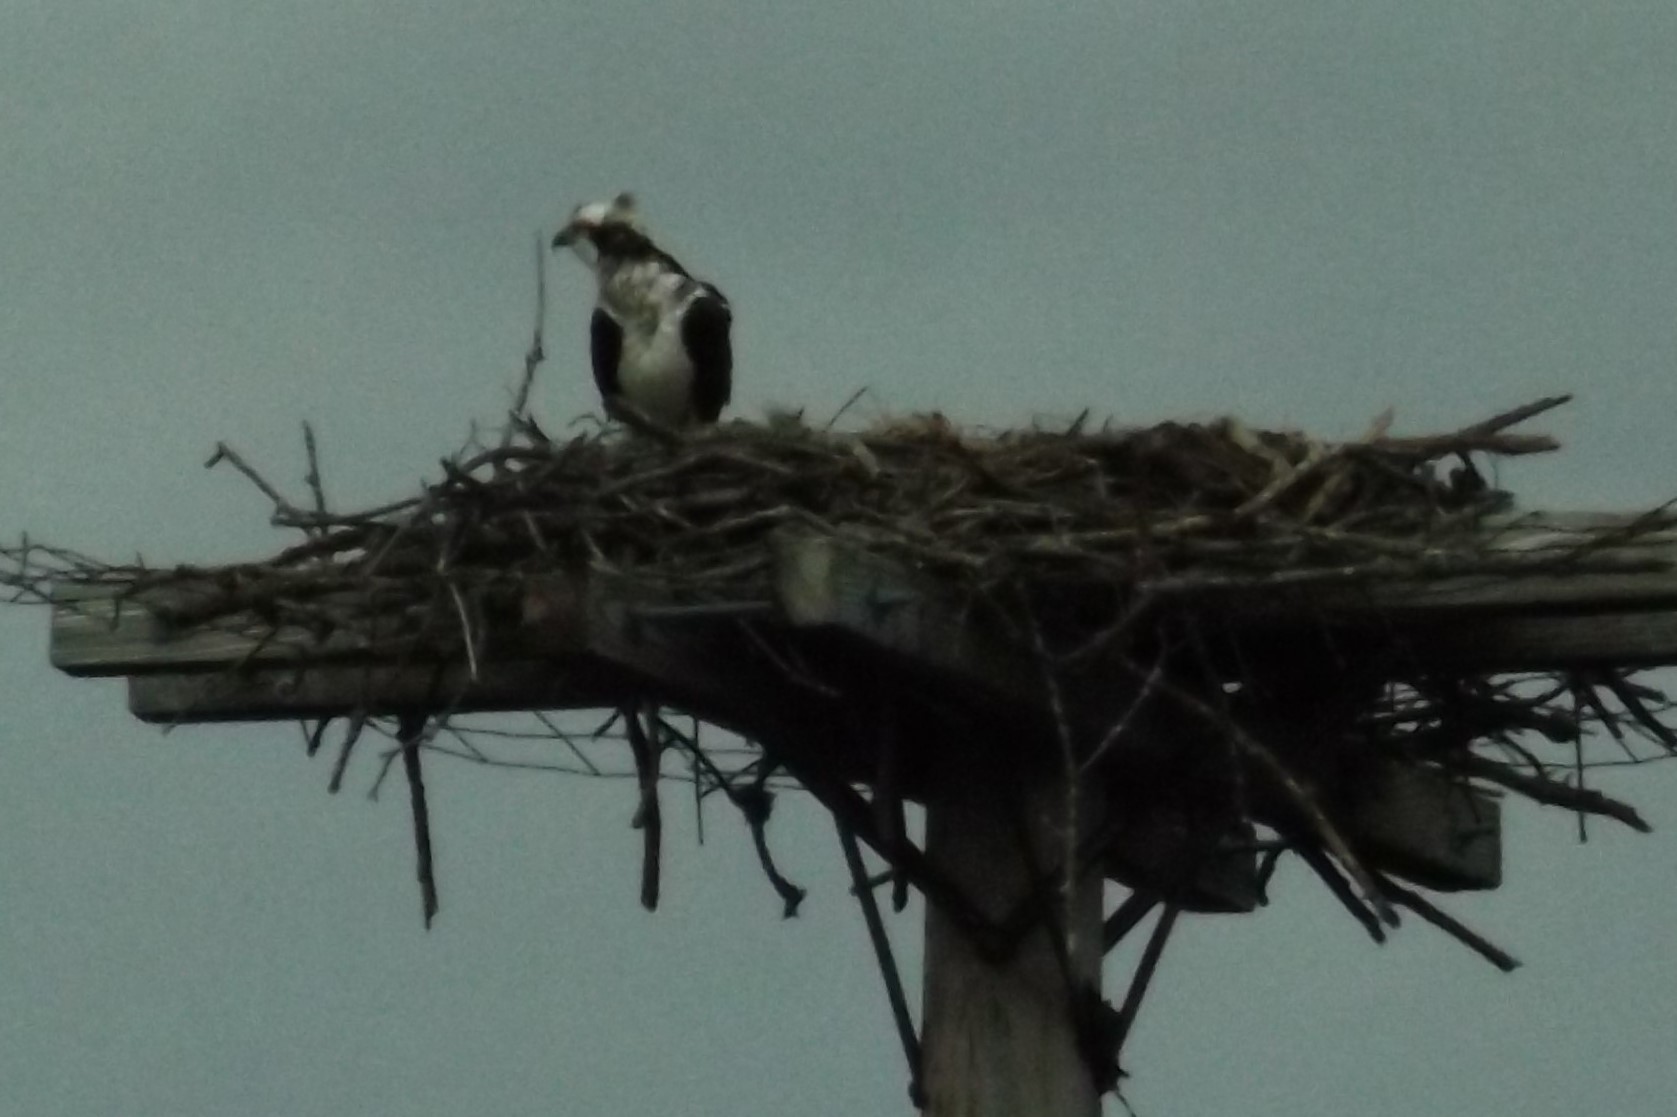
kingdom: Animalia
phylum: Chordata
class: Aves
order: Accipitriformes
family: Pandionidae
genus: Pandion
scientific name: Pandion haliaetus
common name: Osprey
